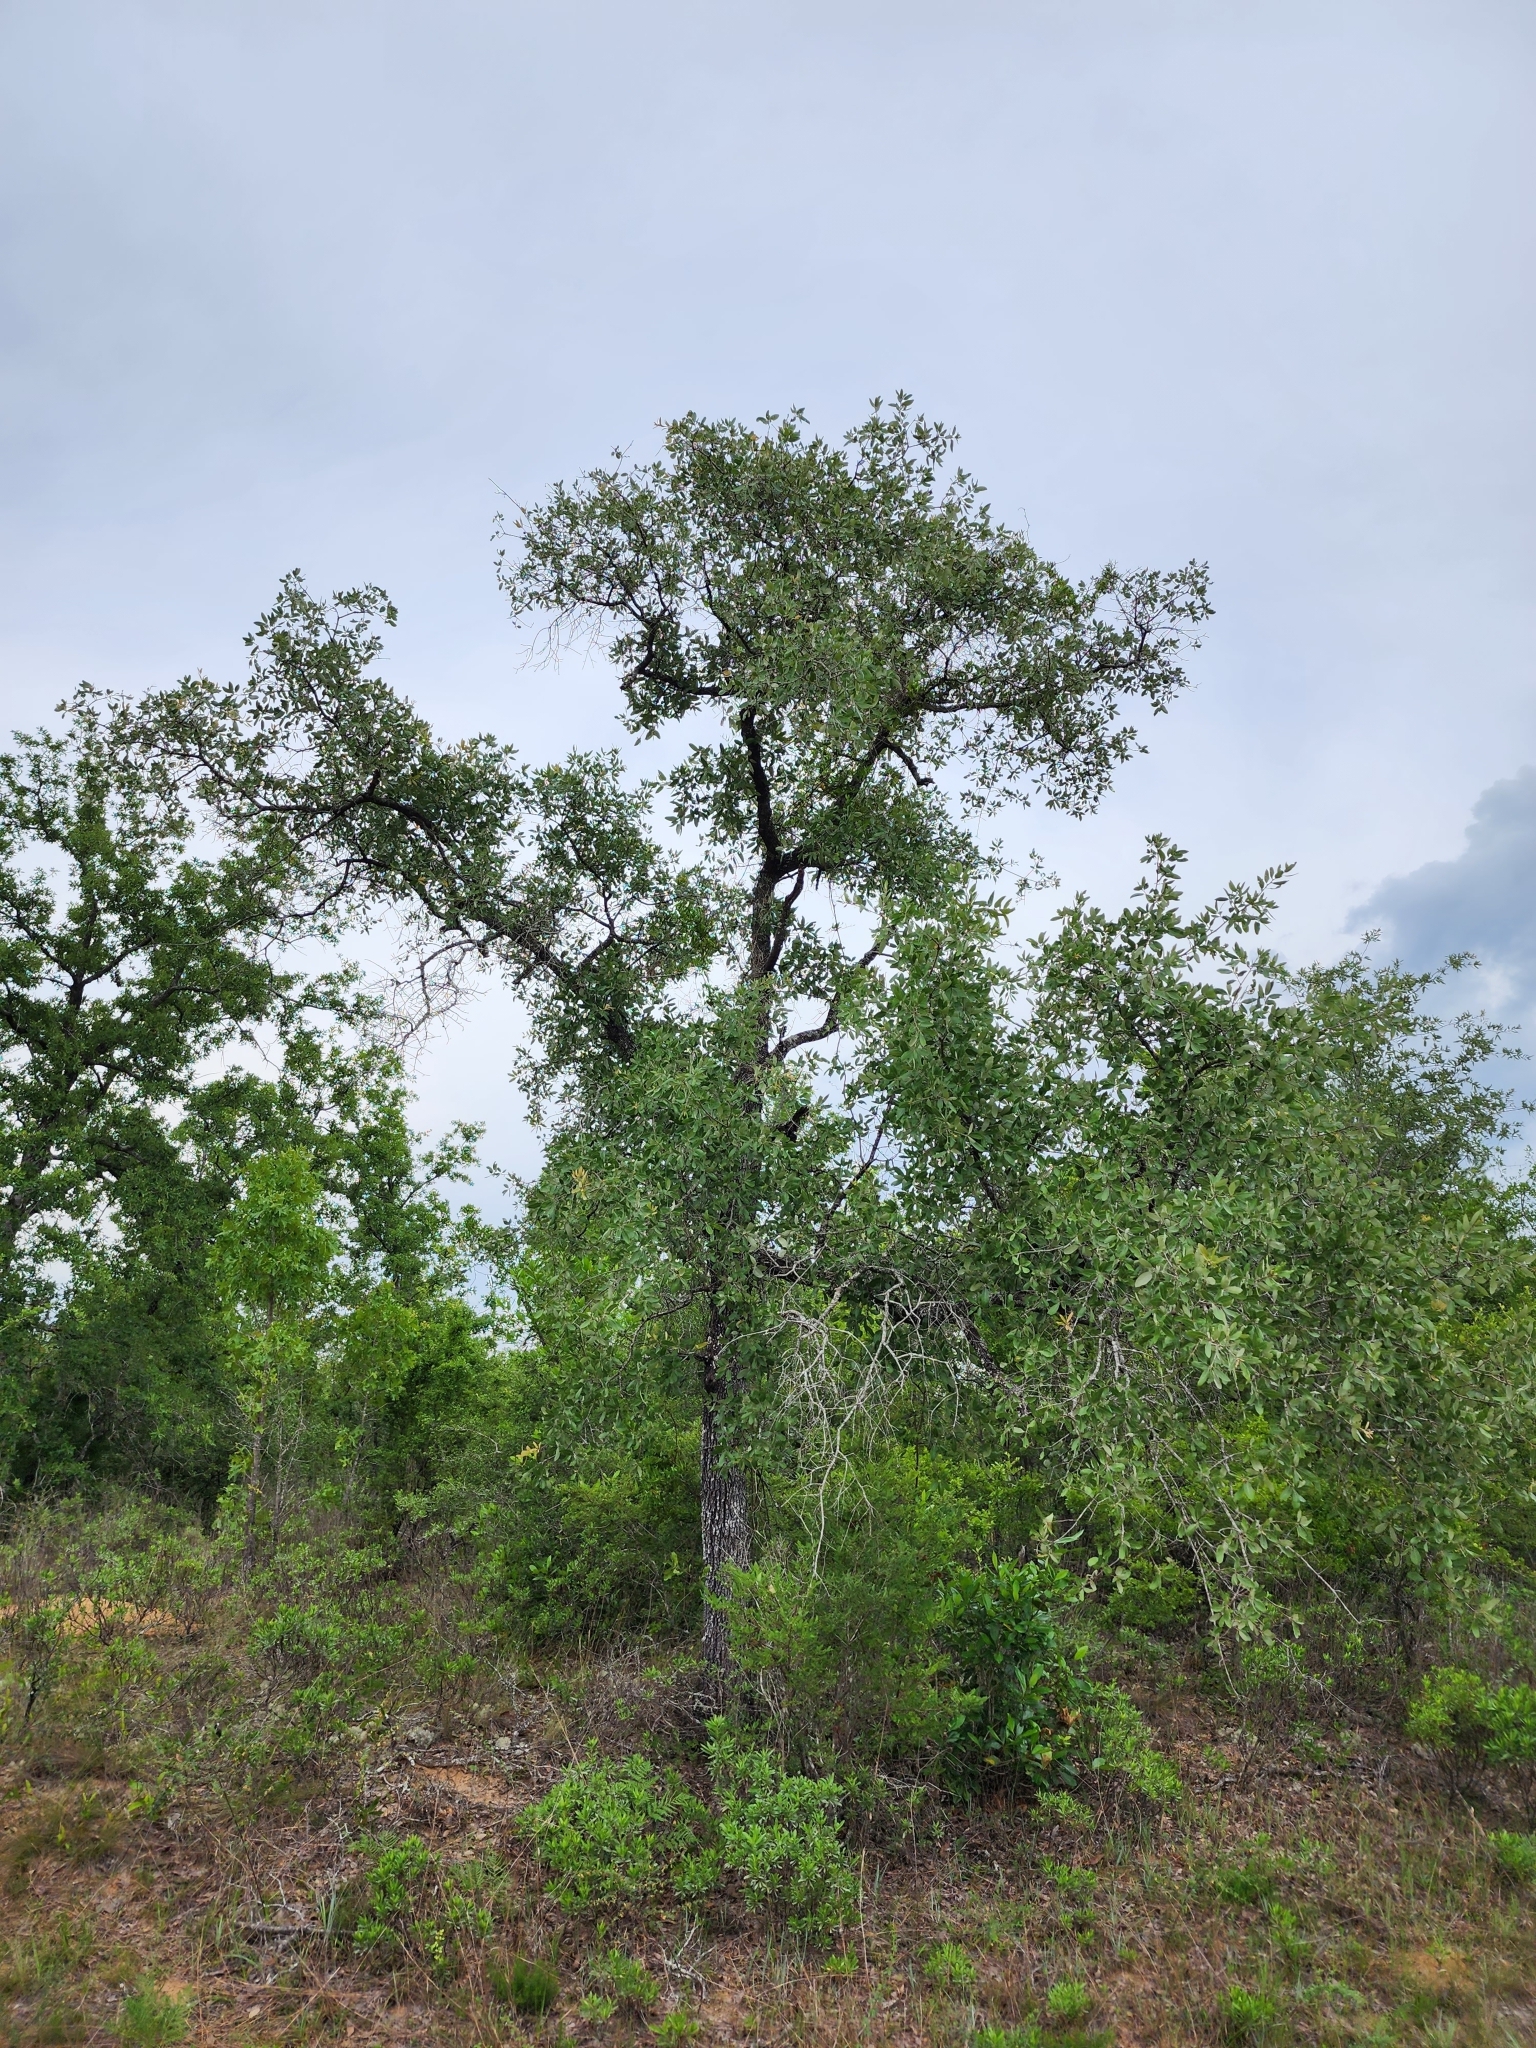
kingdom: Plantae
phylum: Tracheophyta
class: Magnoliopsida
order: Fagales
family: Fagaceae
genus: Quercus
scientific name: Quercus incana
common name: Bluejack oak
